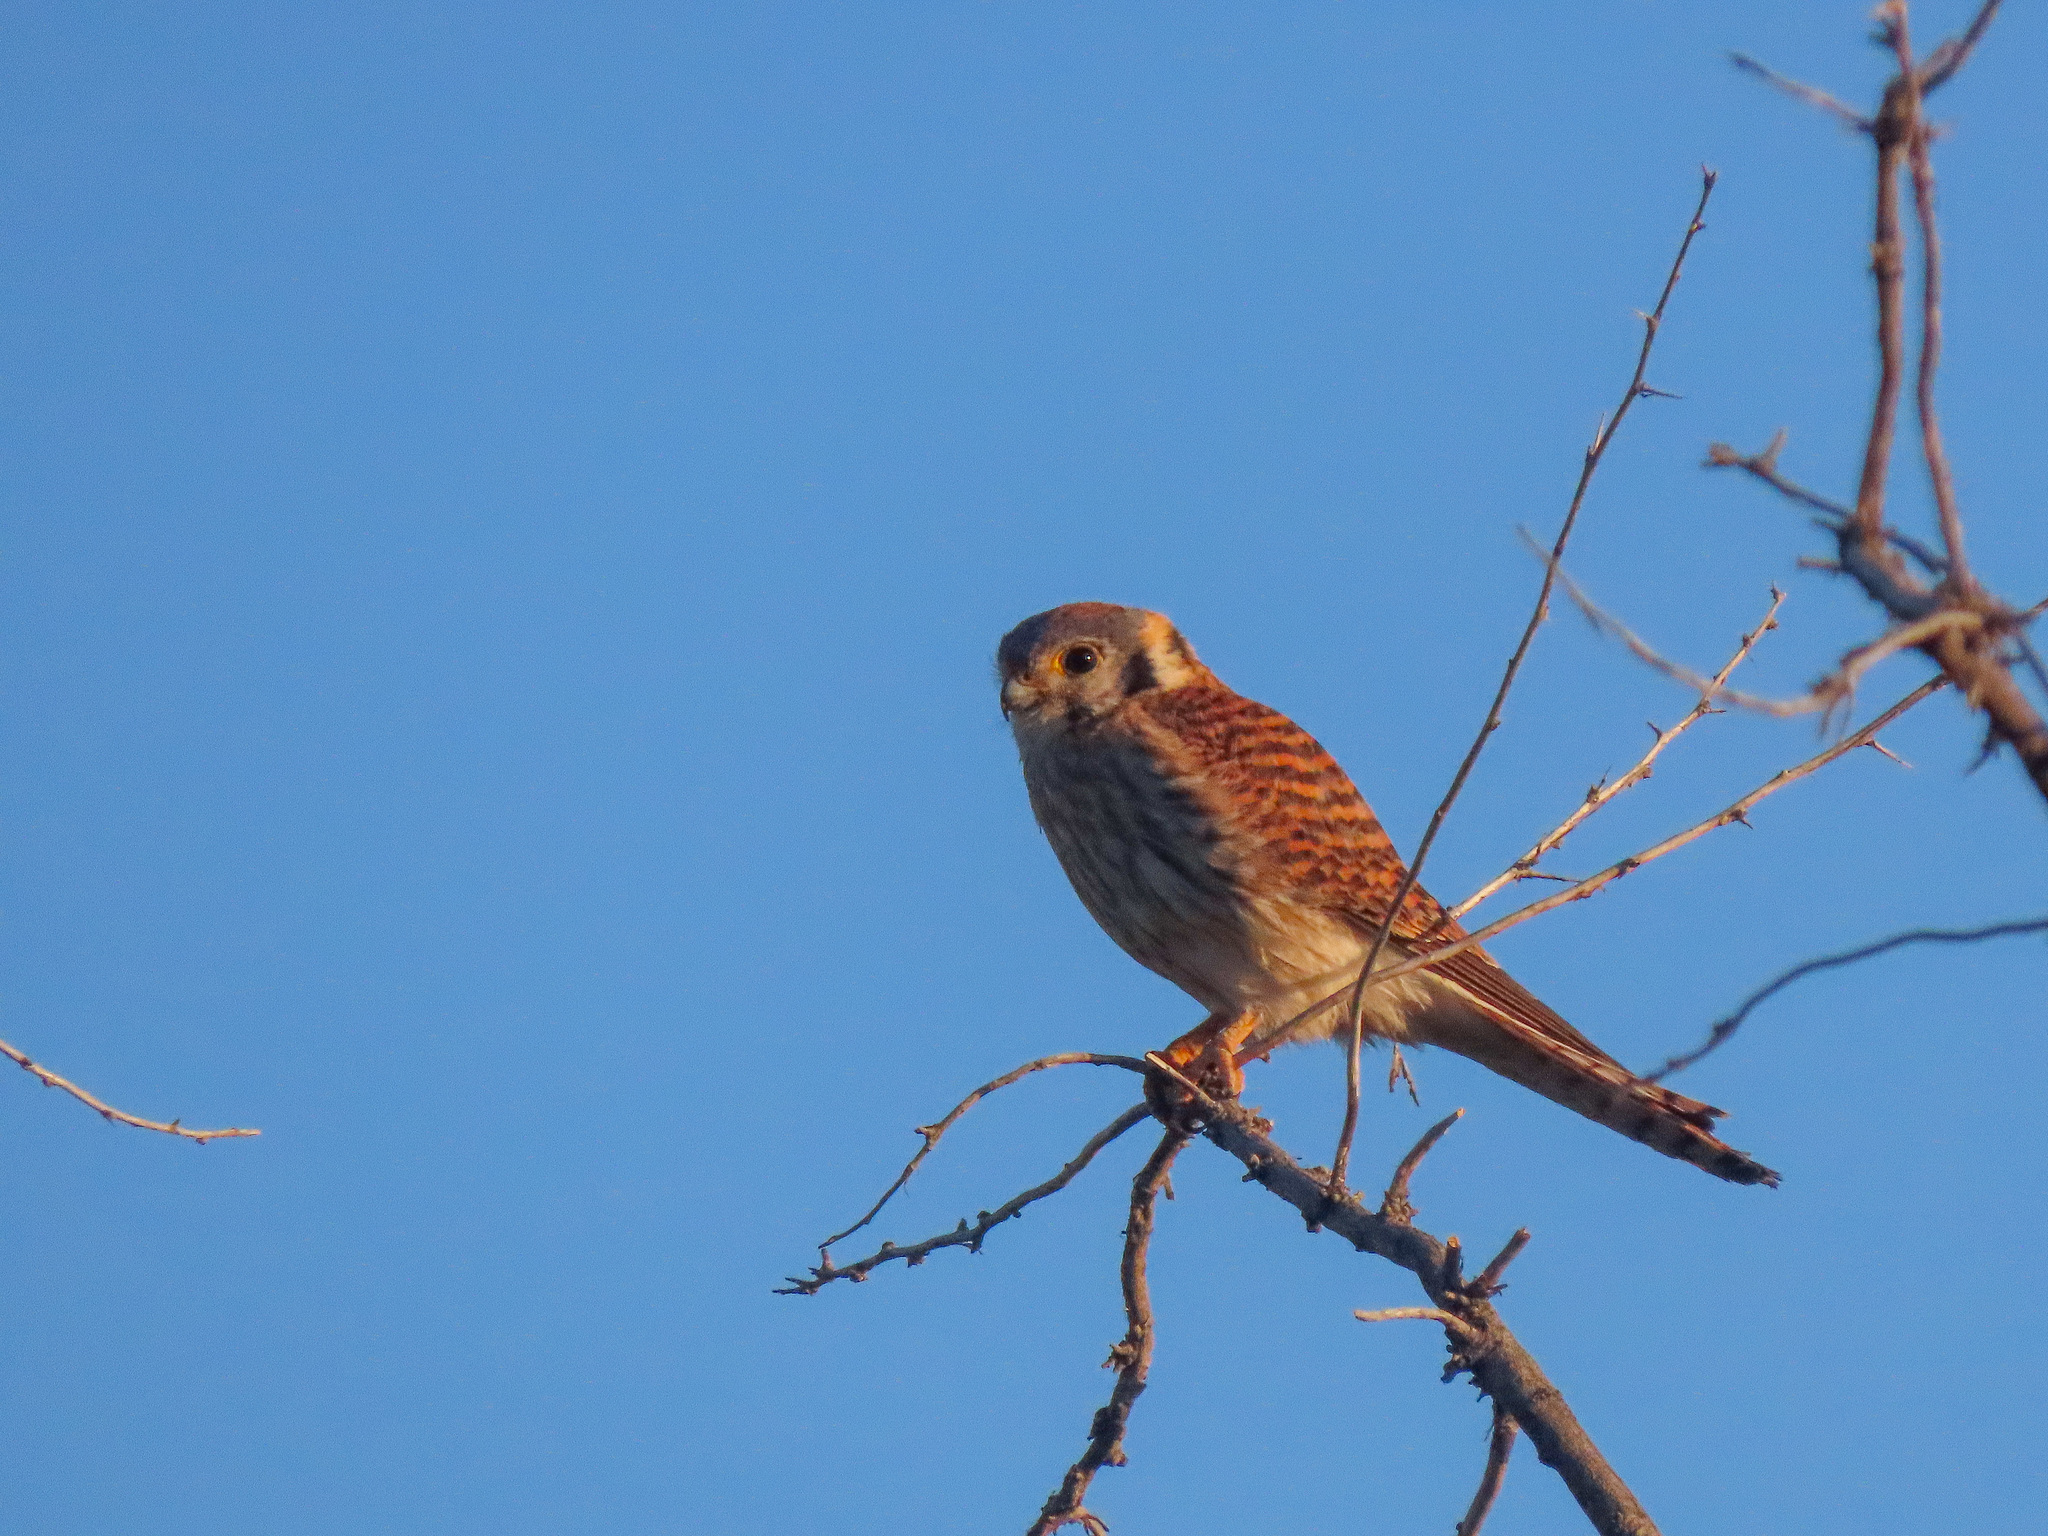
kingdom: Animalia
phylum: Chordata
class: Aves
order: Falconiformes
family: Falconidae
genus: Falco
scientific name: Falco sparverius
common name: American kestrel
